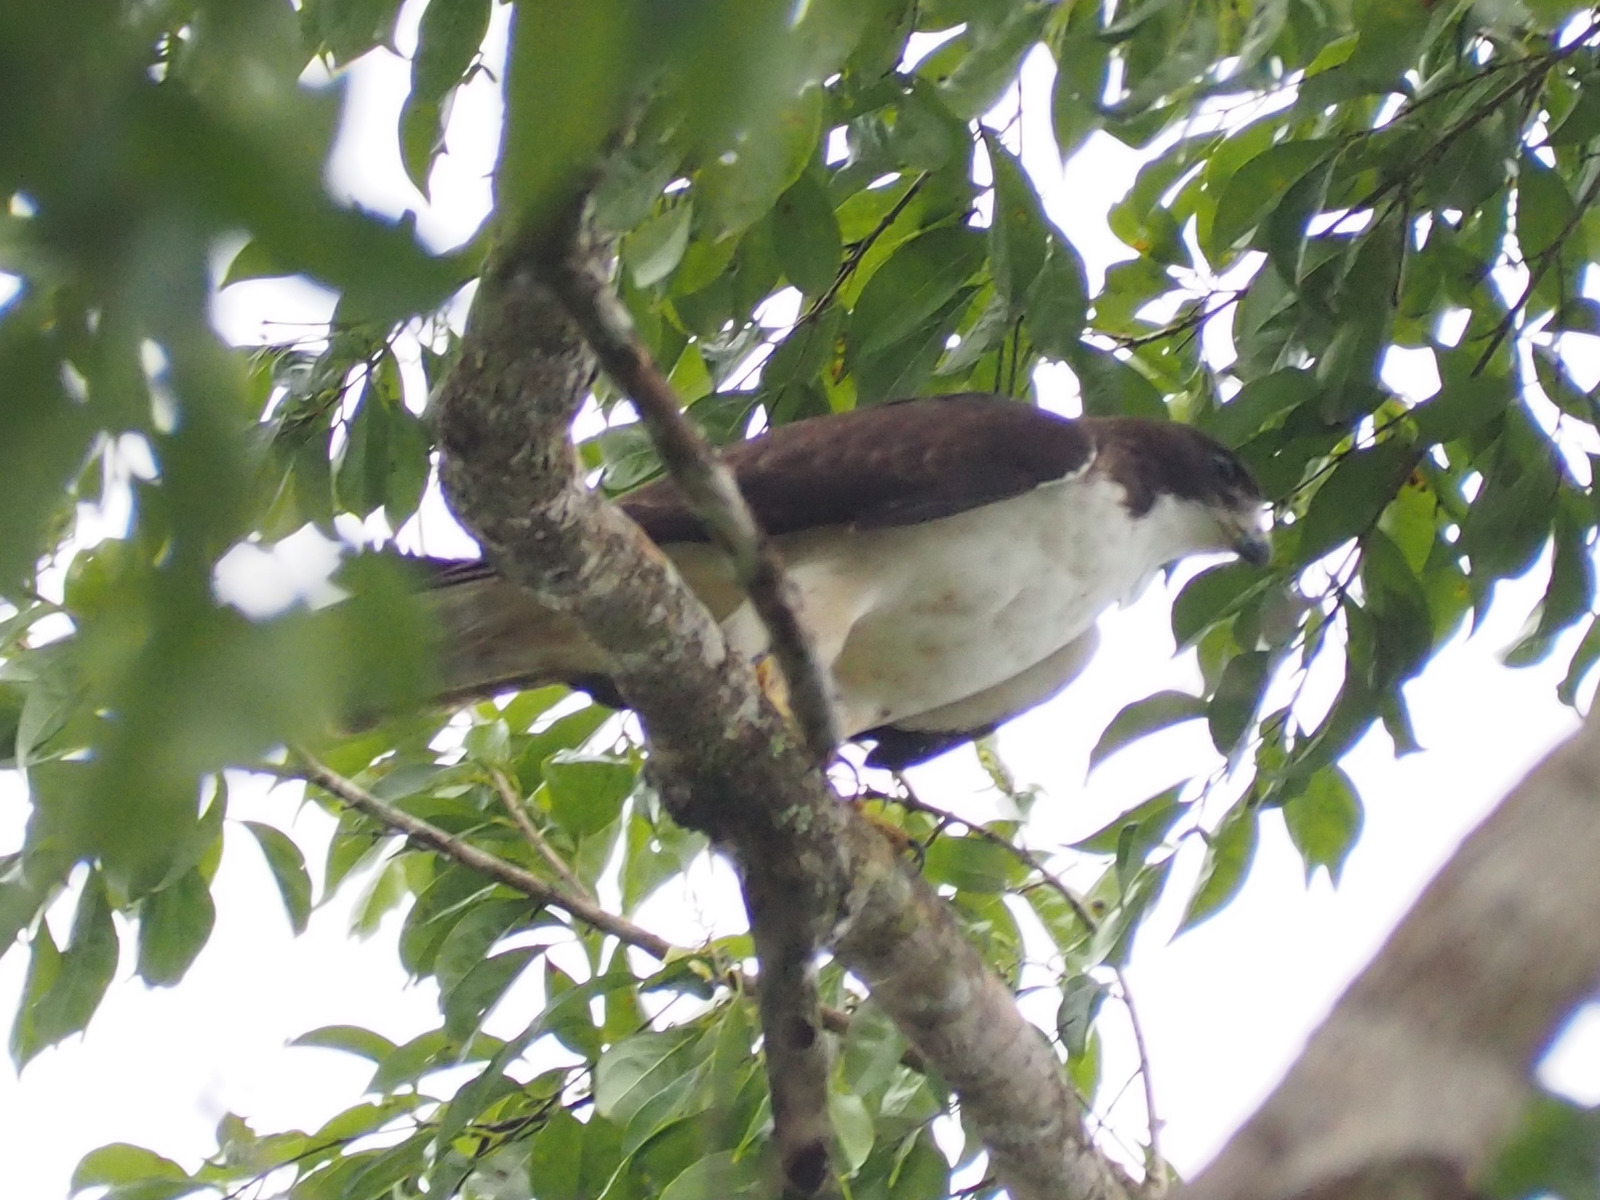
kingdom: Animalia
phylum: Chordata
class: Aves
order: Accipitriformes
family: Accipitridae
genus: Buteo
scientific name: Buteo brachyurus
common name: Short-tailed hawk
